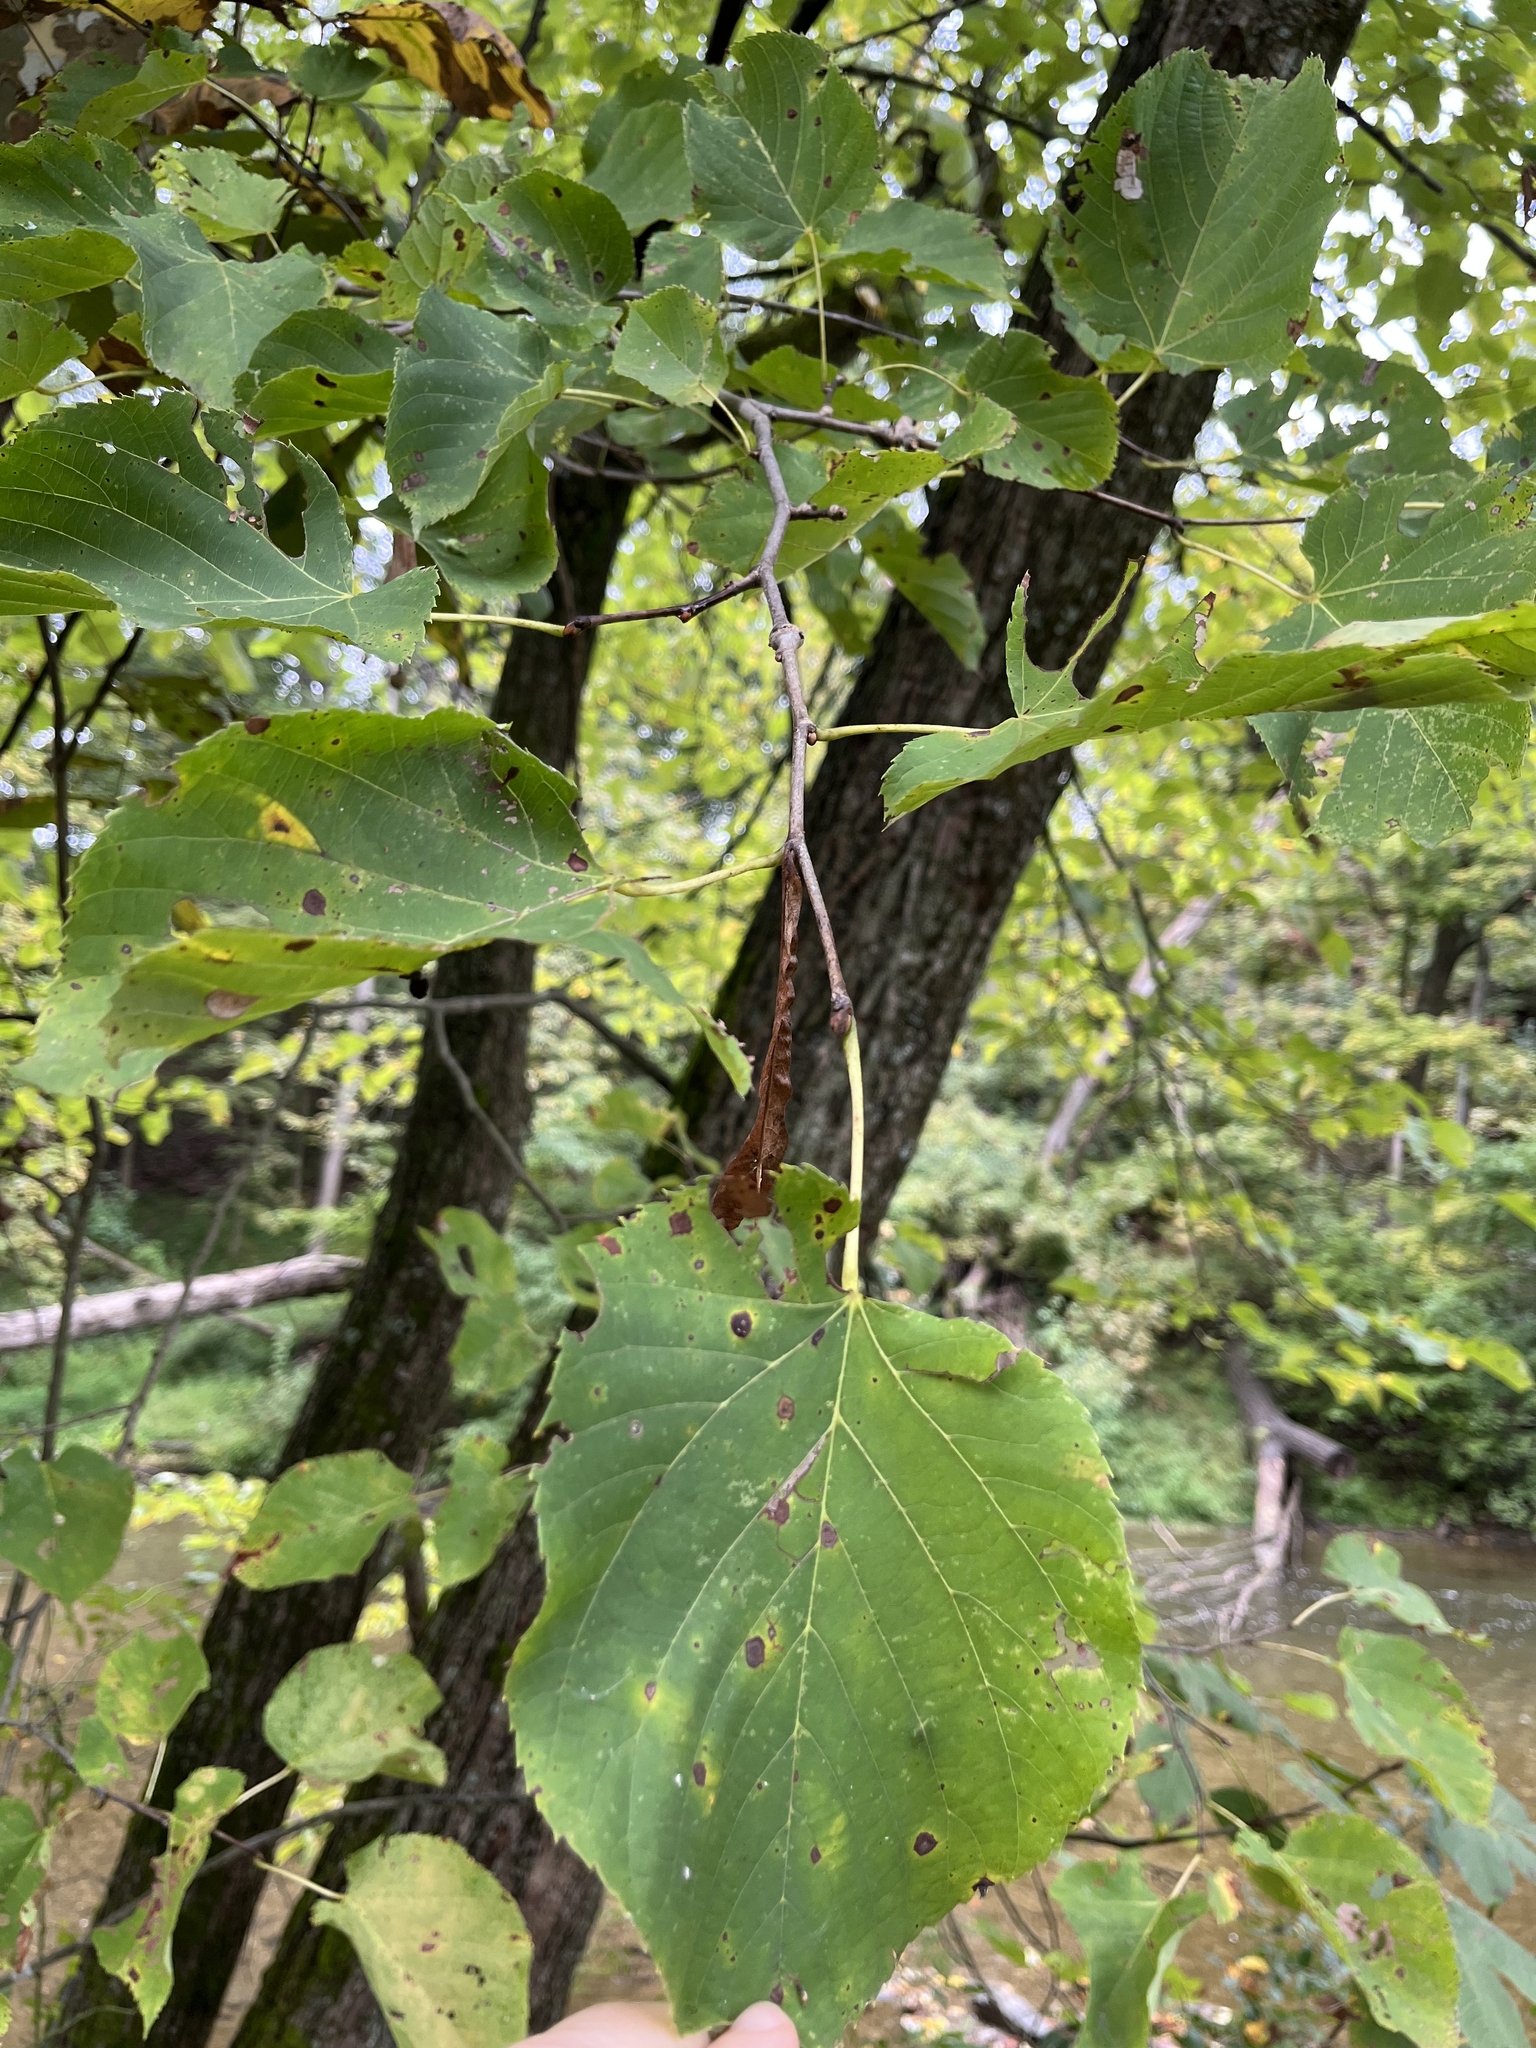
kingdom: Plantae
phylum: Tracheophyta
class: Magnoliopsida
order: Malvales
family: Malvaceae
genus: Tilia
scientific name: Tilia americana
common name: Basswood
